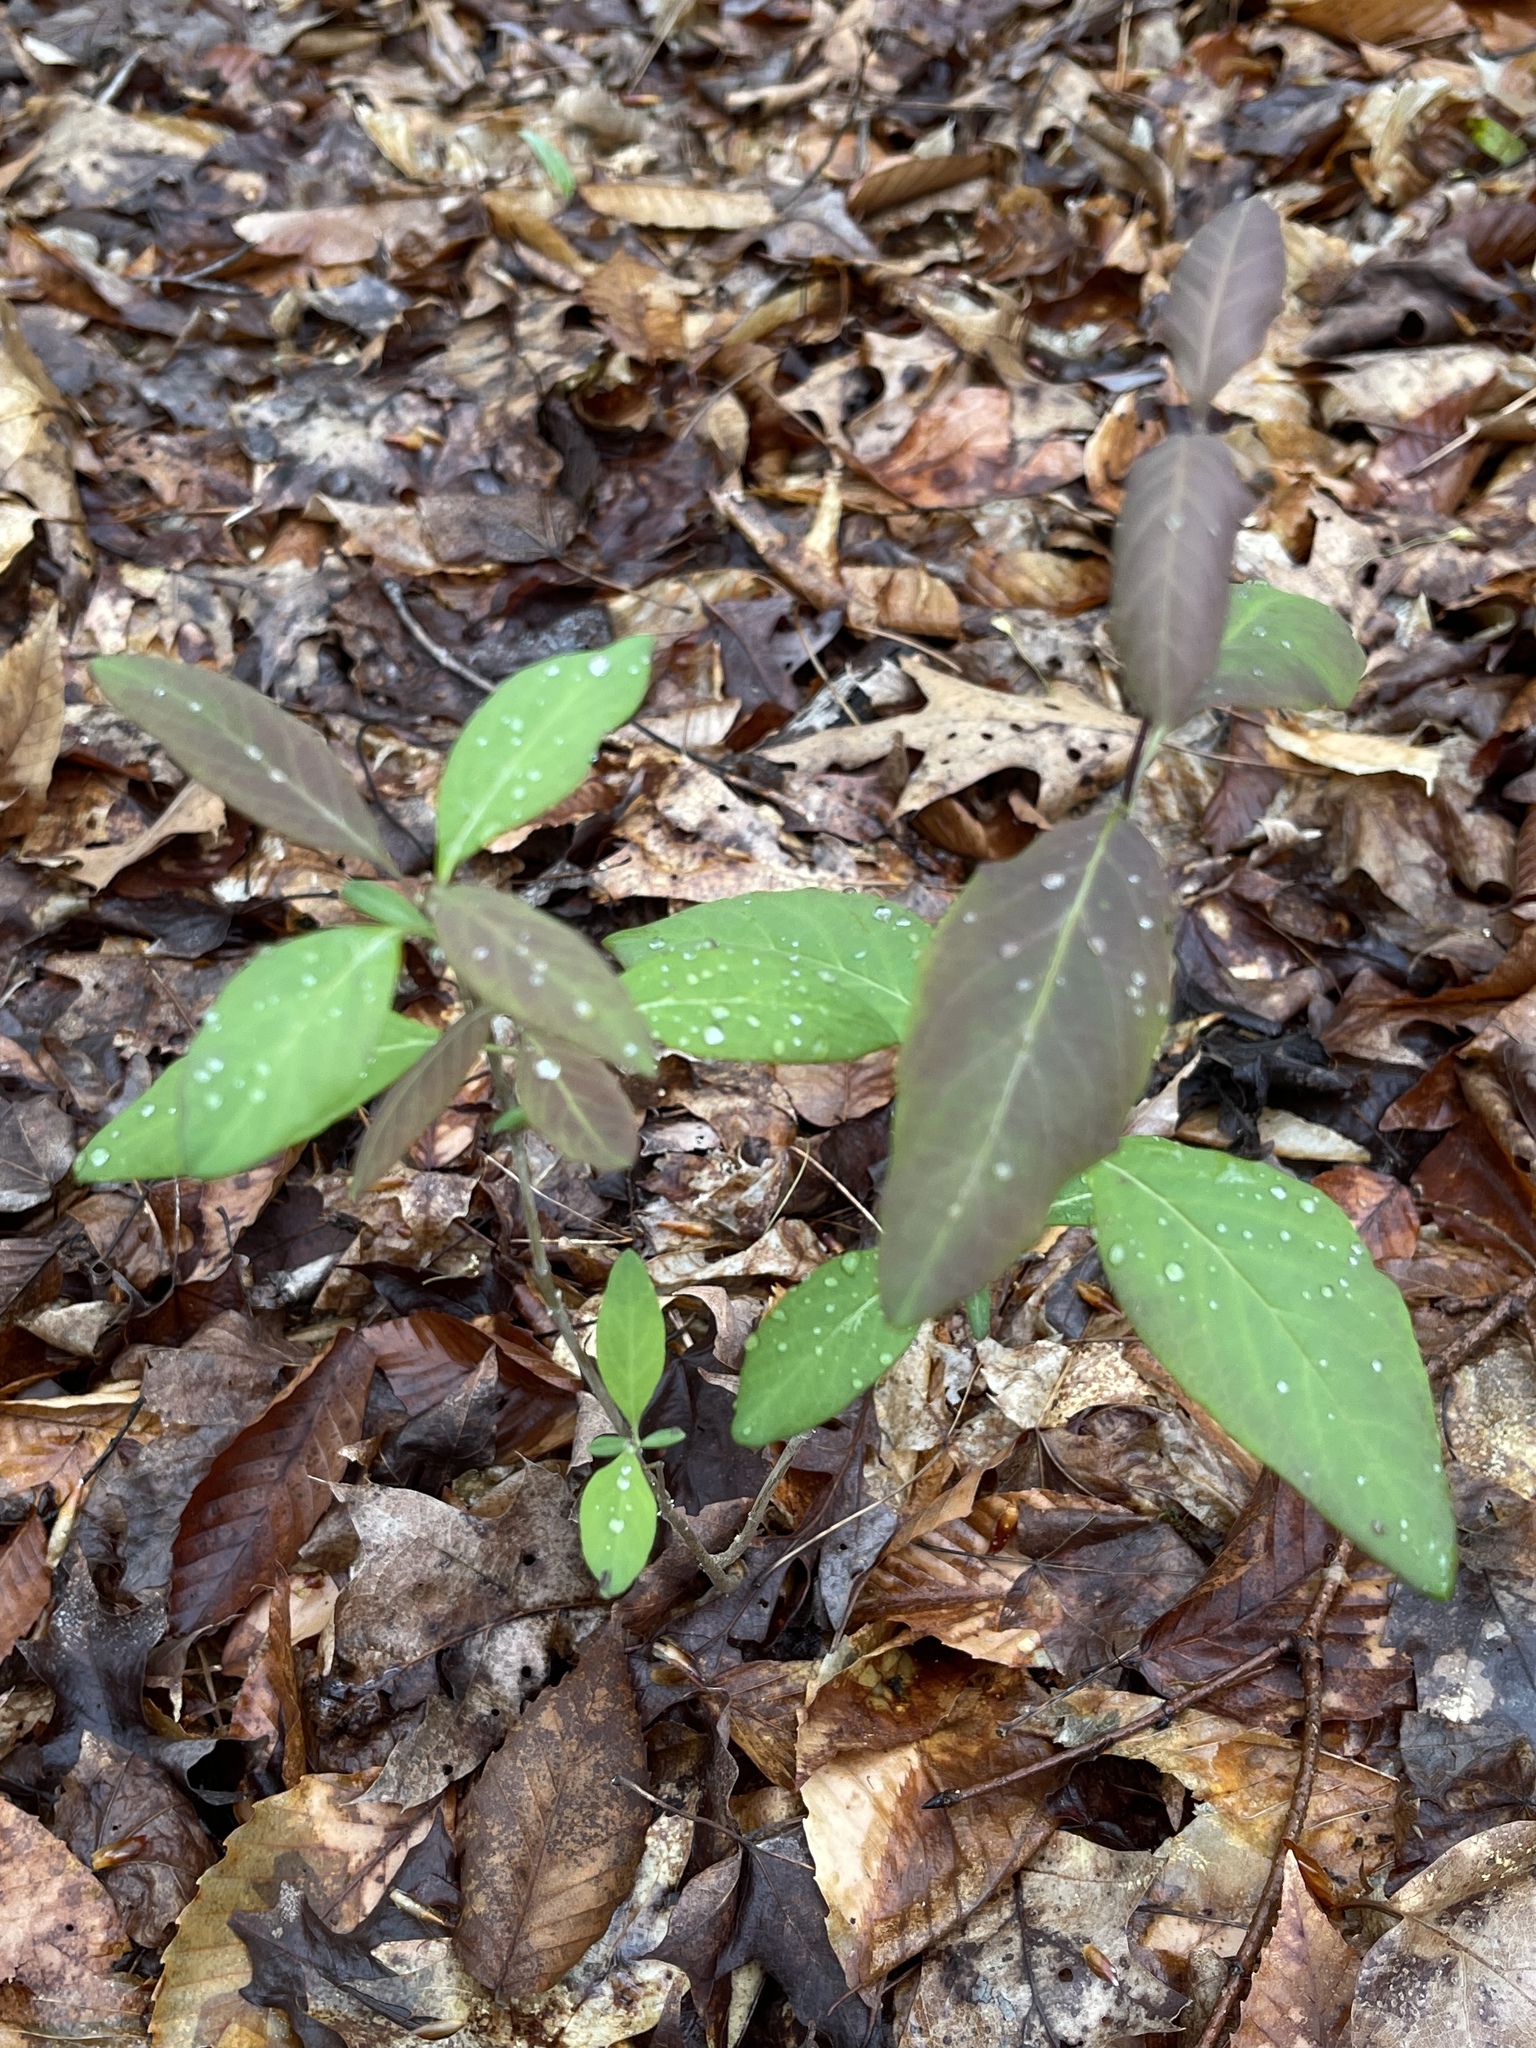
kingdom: Plantae
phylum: Tracheophyta
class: Magnoliopsida
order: Dipsacales
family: Caprifoliaceae
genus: Lonicera
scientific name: Lonicera dioica
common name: Limber honeysuckle
